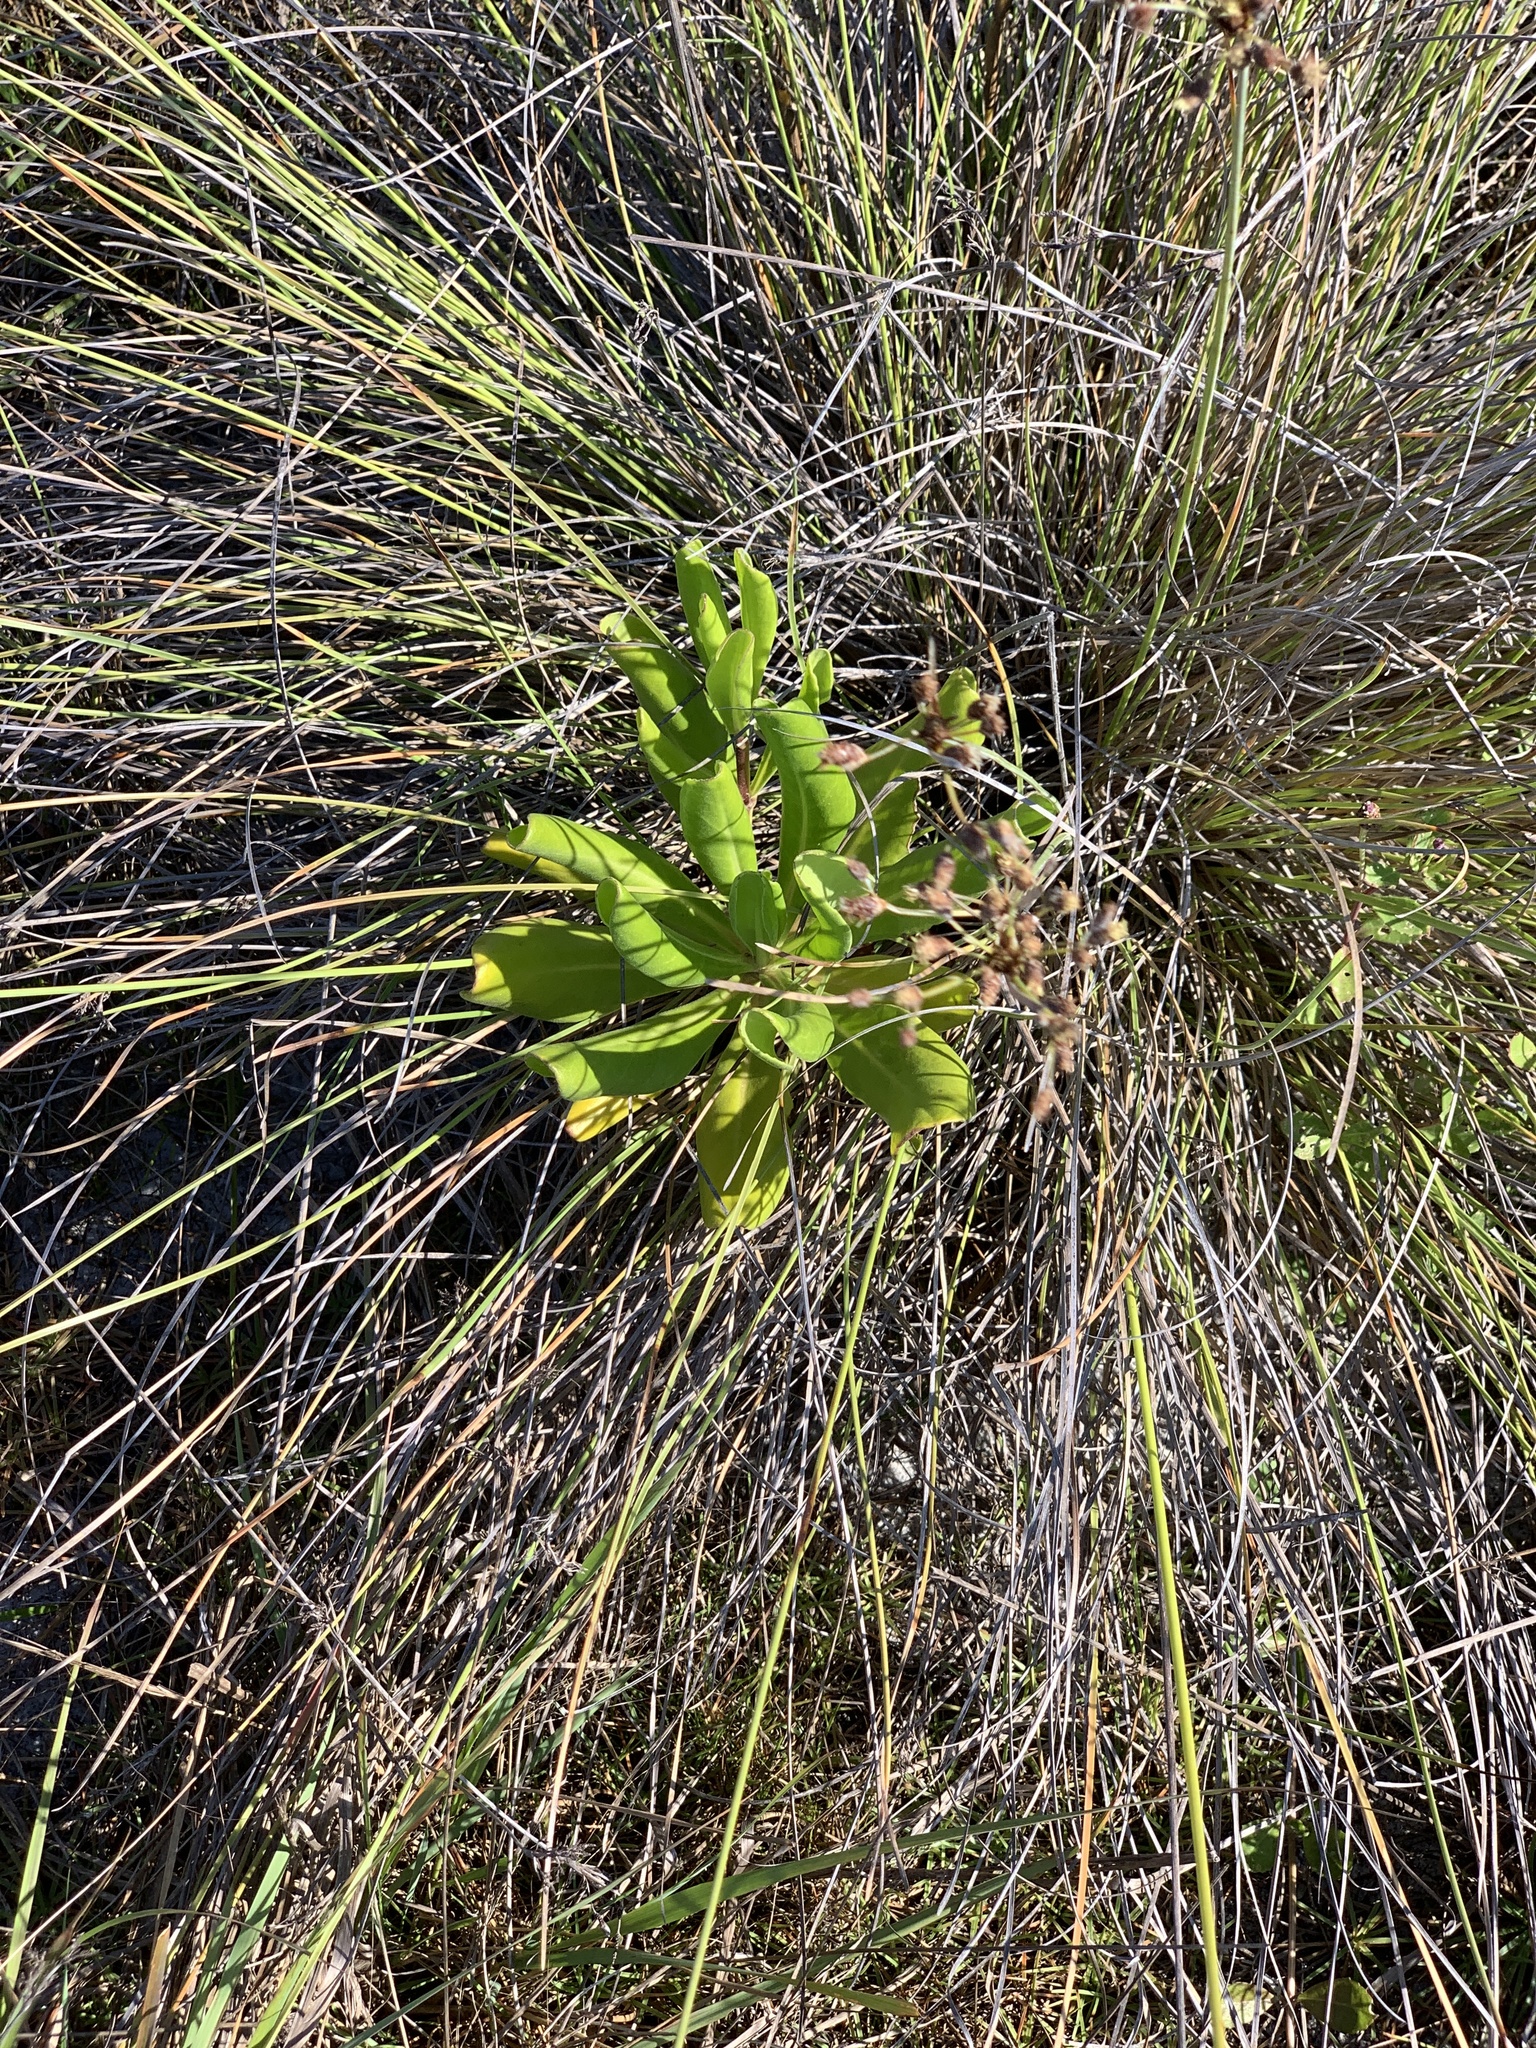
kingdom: Plantae
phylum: Tracheophyta
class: Magnoliopsida
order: Asterales
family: Goodeniaceae
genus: Scaevola
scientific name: Scaevola taccada
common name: Sea lettucetree
